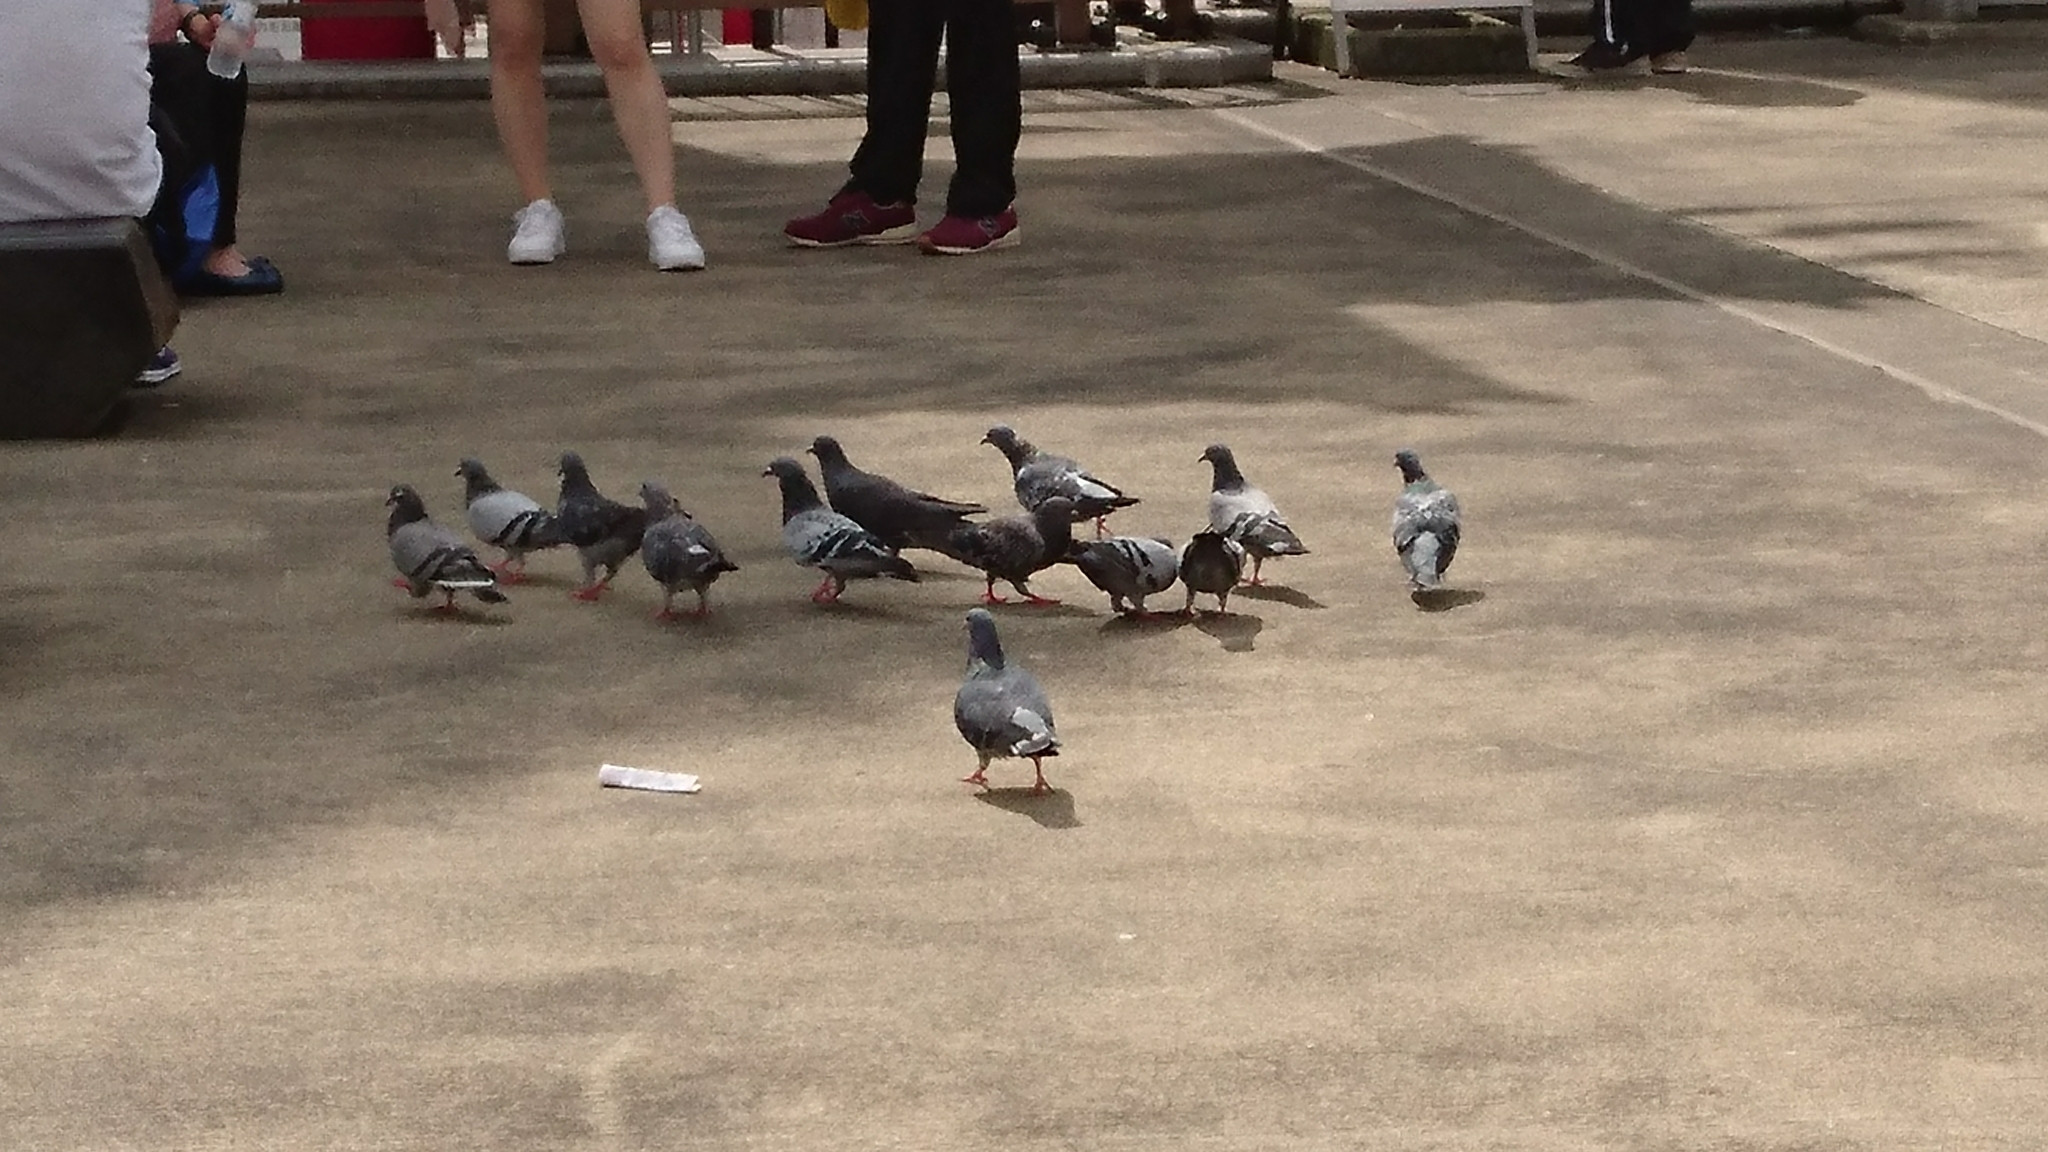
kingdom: Animalia
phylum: Chordata
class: Aves
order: Columbiformes
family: Columbidae
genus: Columba
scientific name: Columba livia
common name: Rock pigeon
